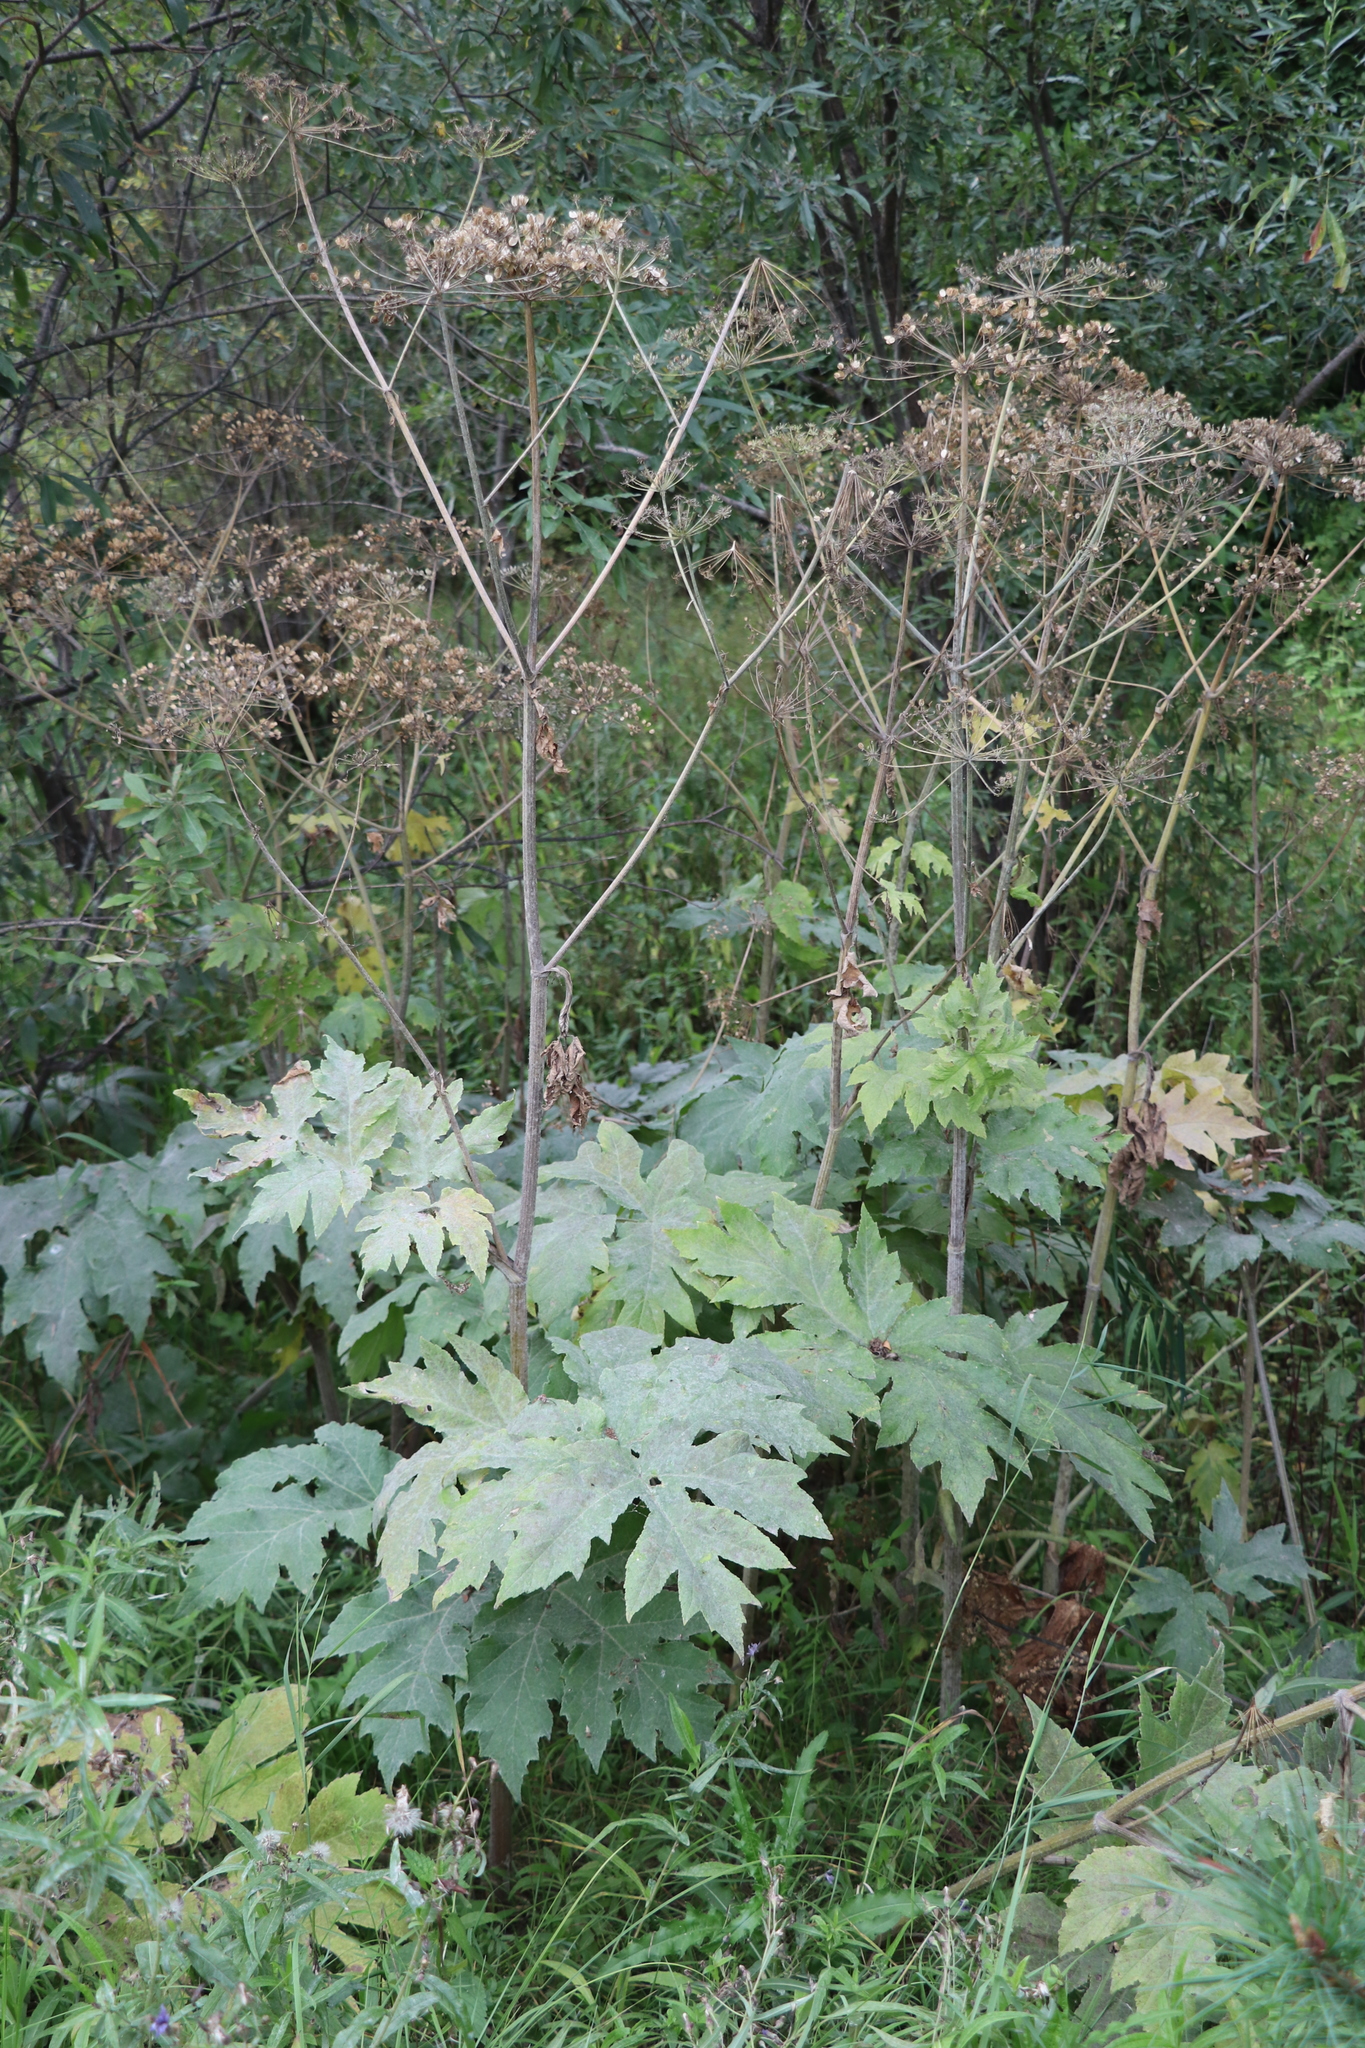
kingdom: Plantae
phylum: Tracheophyta
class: Magnoliopsida
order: Apiales
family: Apiaceae
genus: Heracleum
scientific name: Heracleum dissectum
